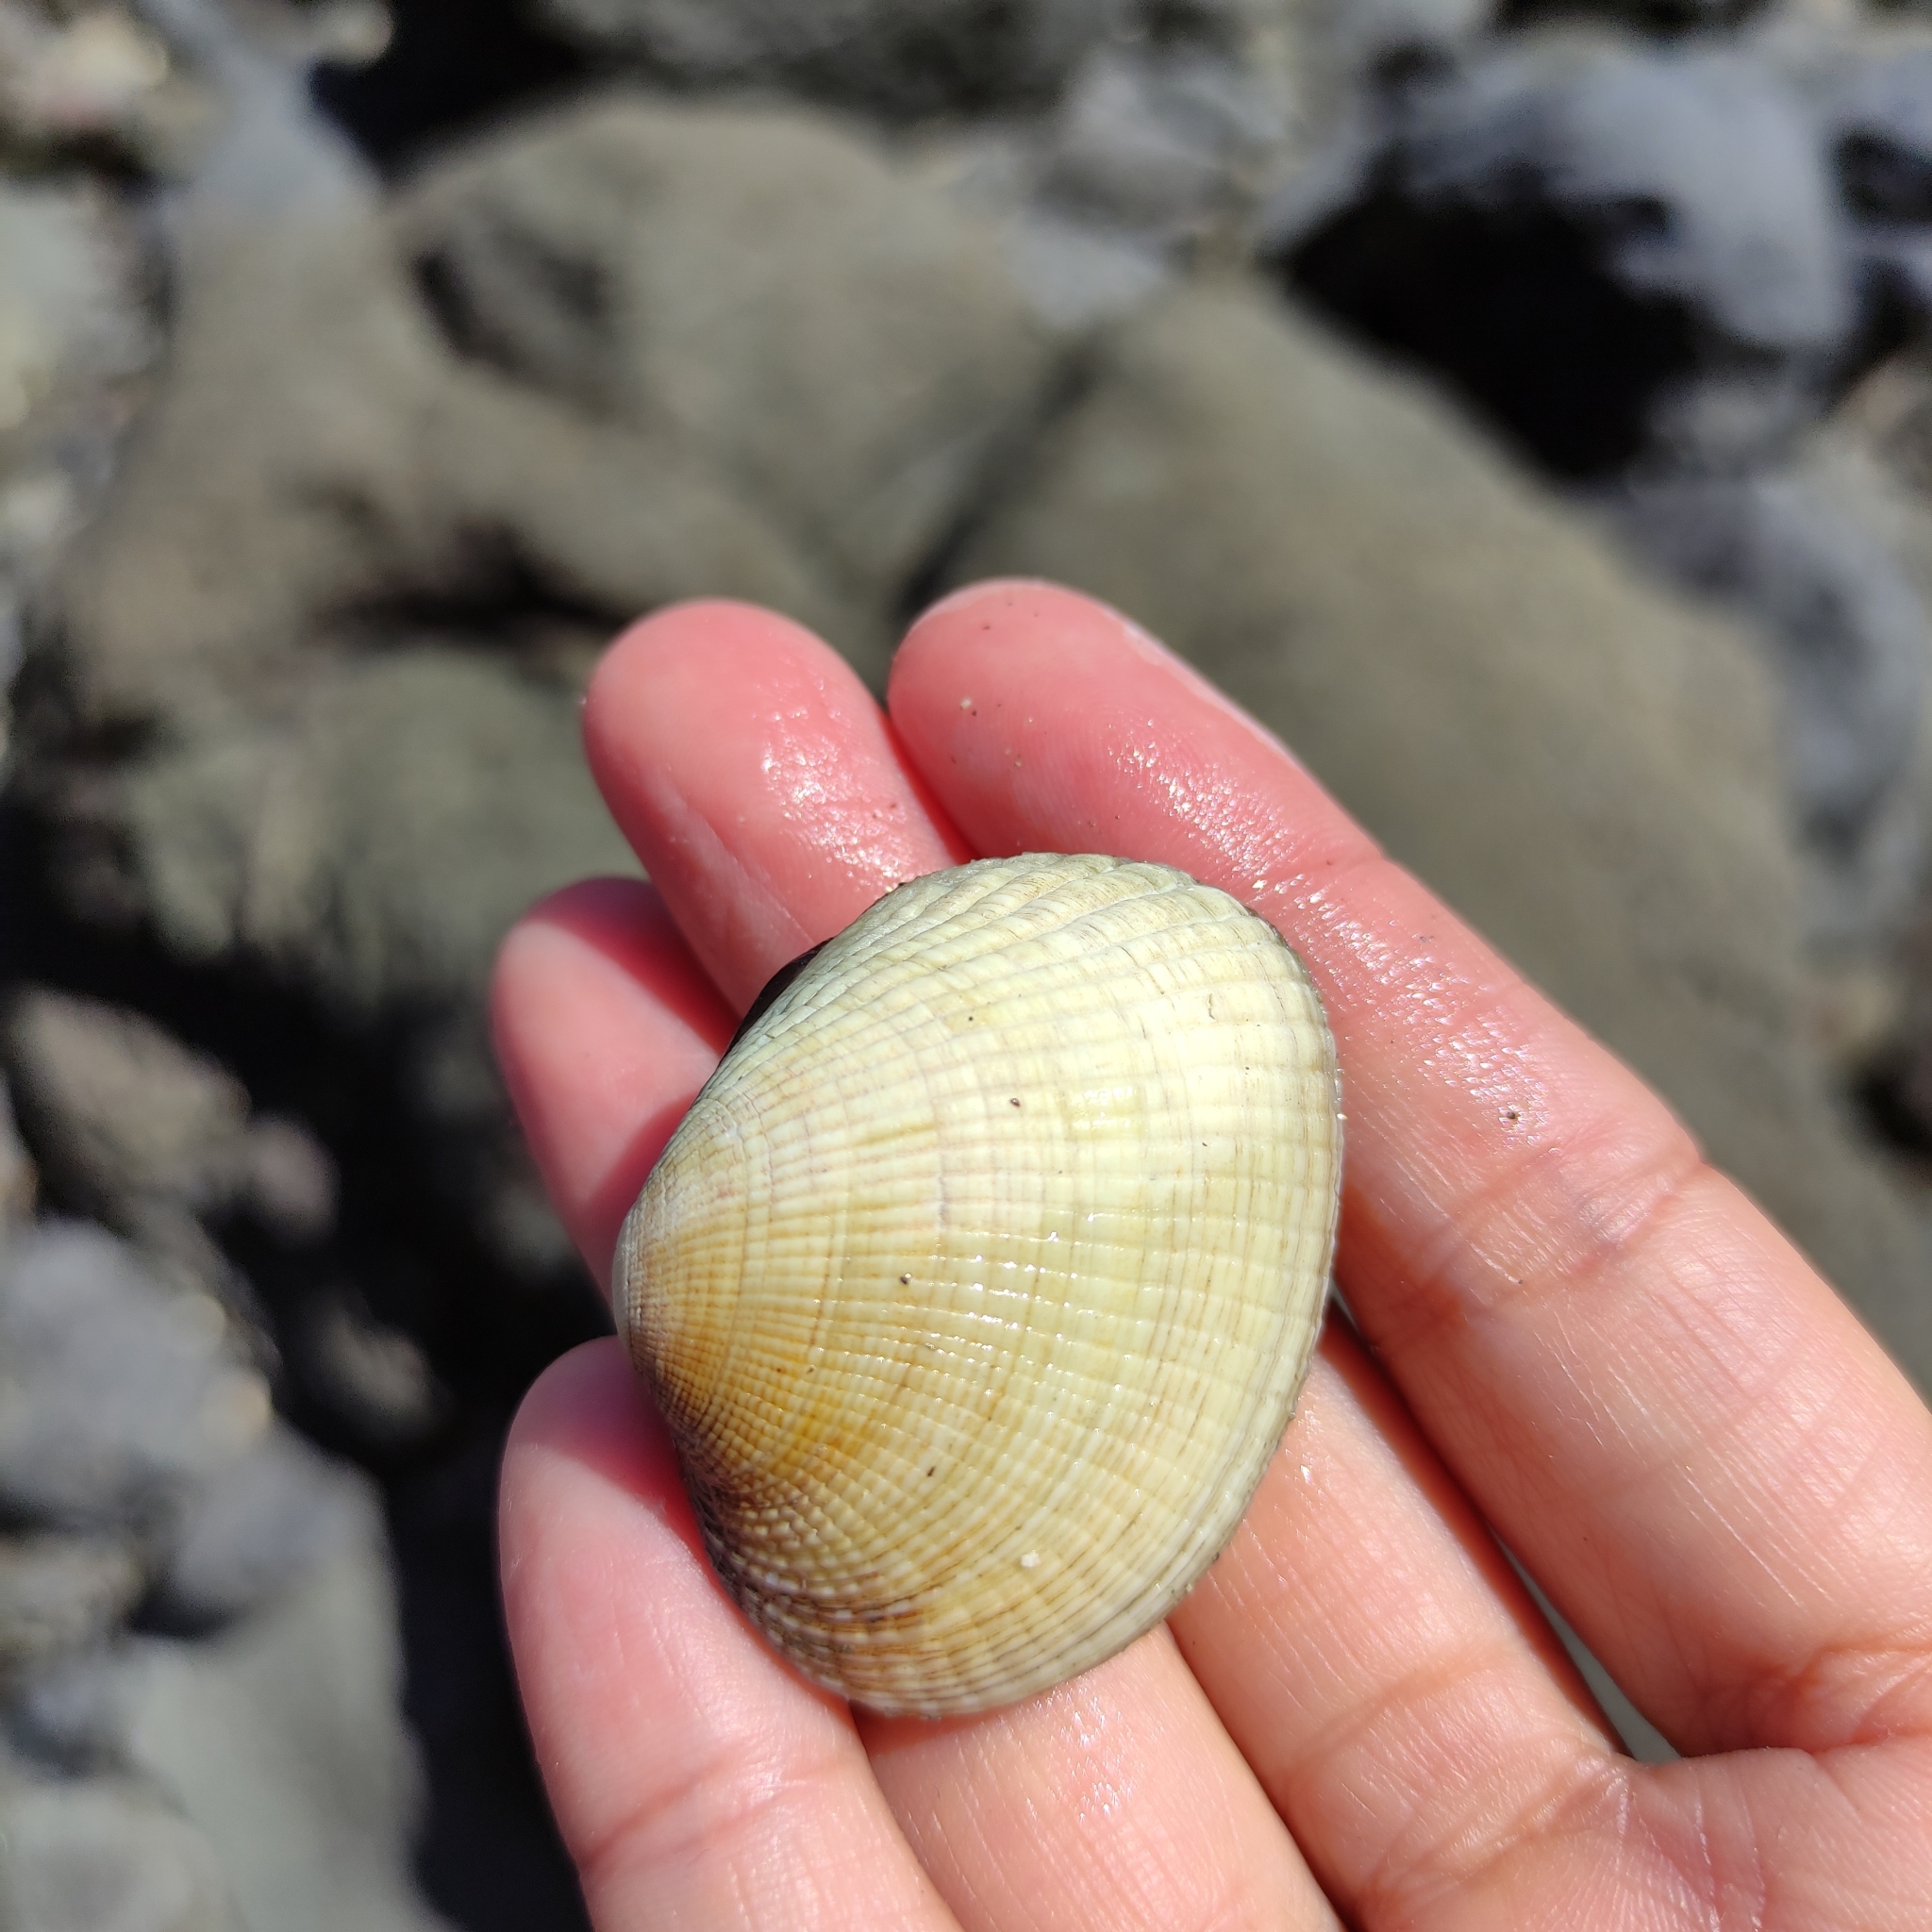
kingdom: Animalia
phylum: Mollusca
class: Bivalvia
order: Venerida
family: Veneridae
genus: Leukoma
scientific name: Leukoma crassicosta
